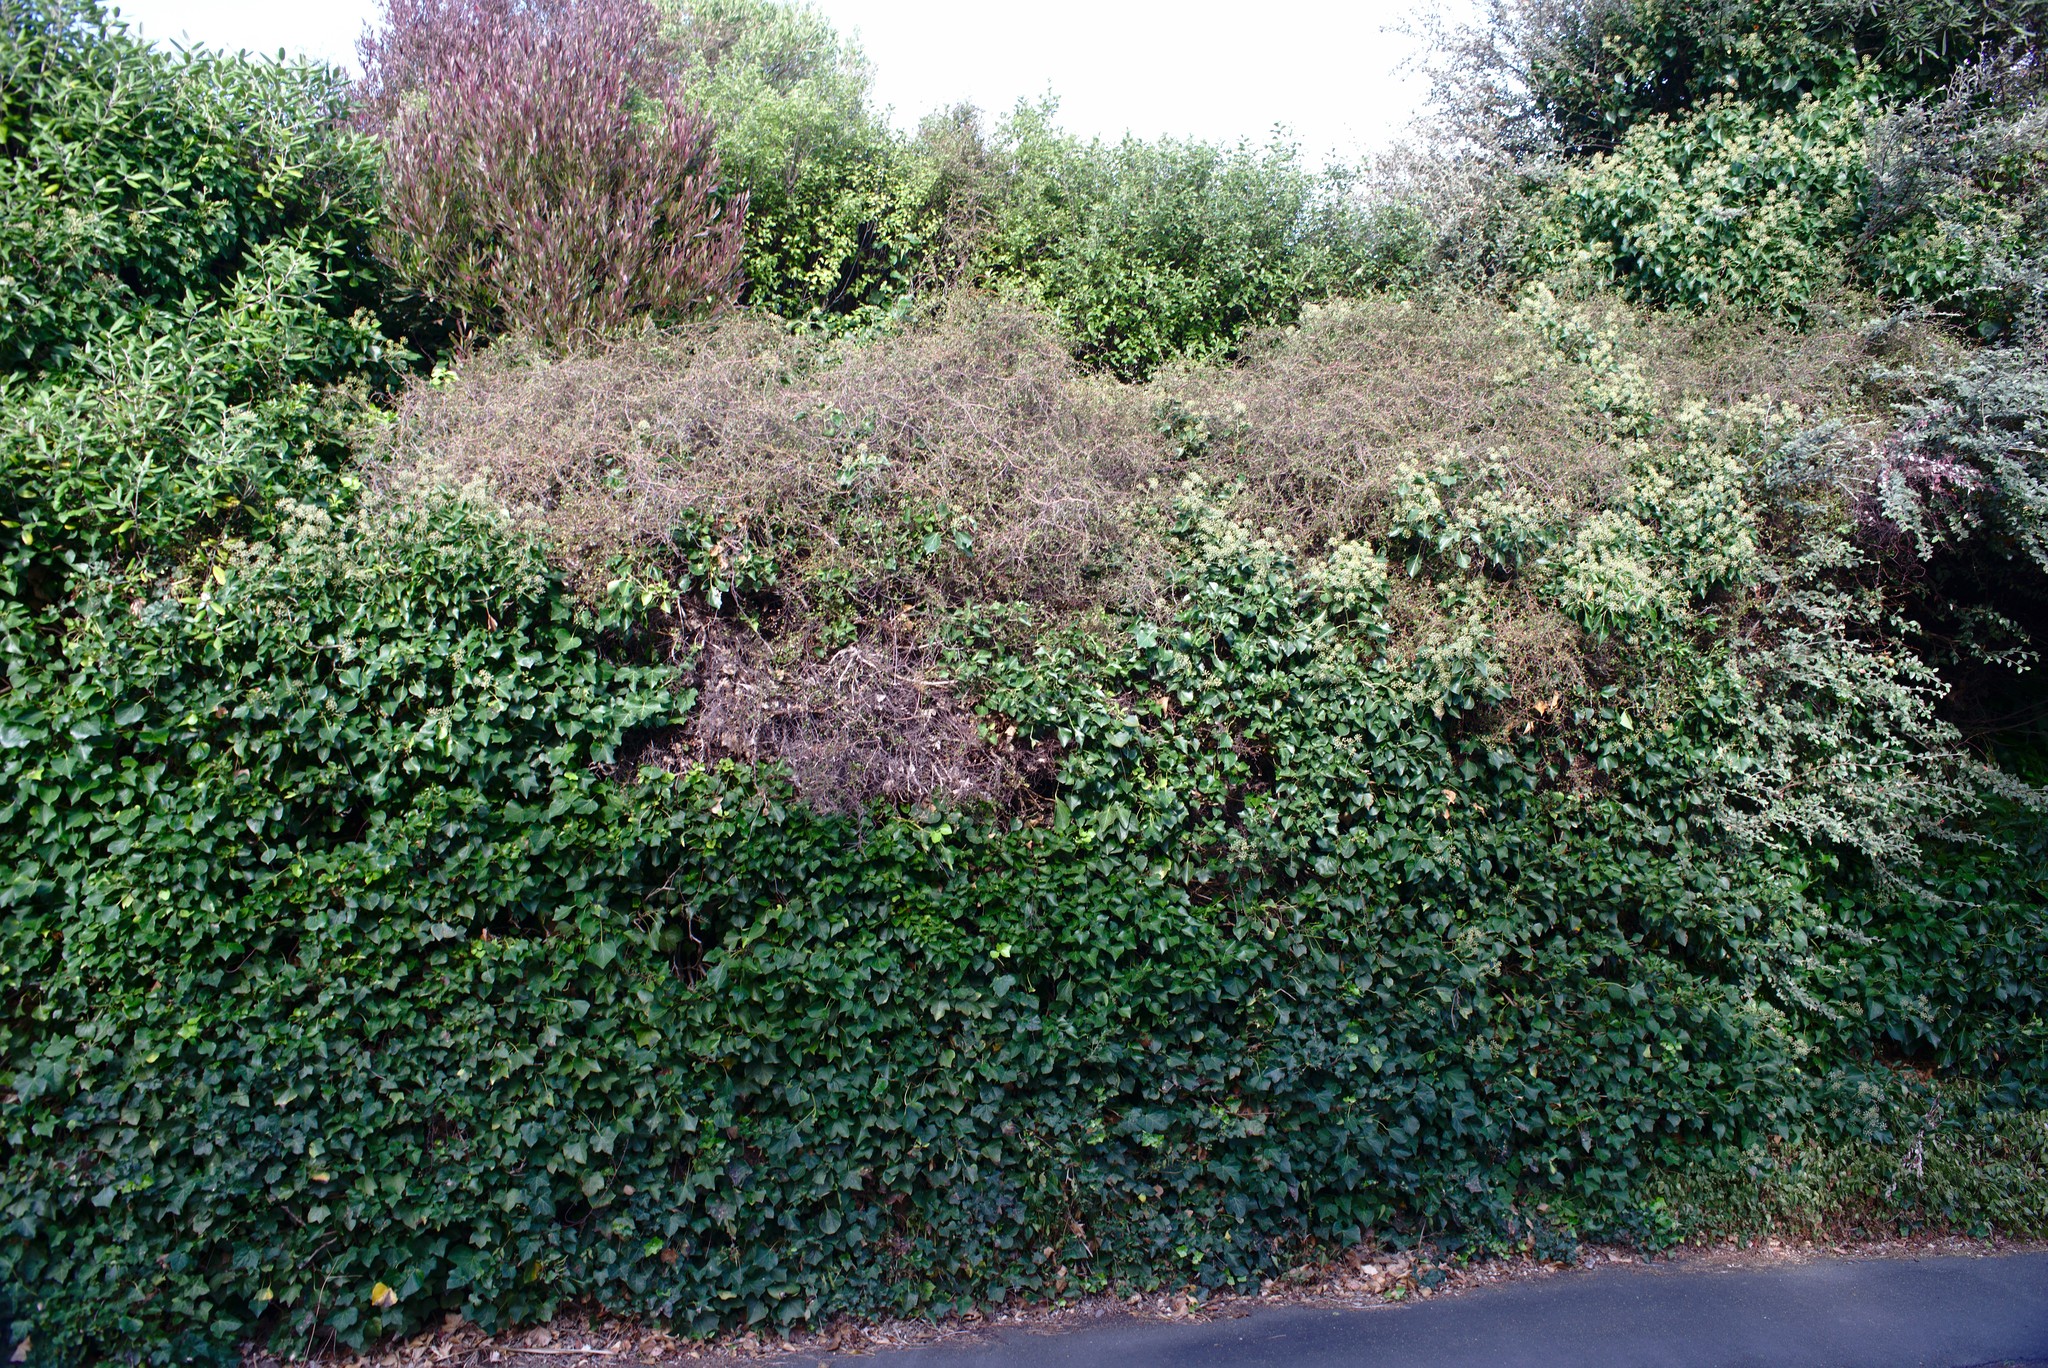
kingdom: Plantae
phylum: Tracheophyta
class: Magnoliopsida
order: Apiales
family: Araliaceae
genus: Hedera
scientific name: Hedera helix
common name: Ivy
